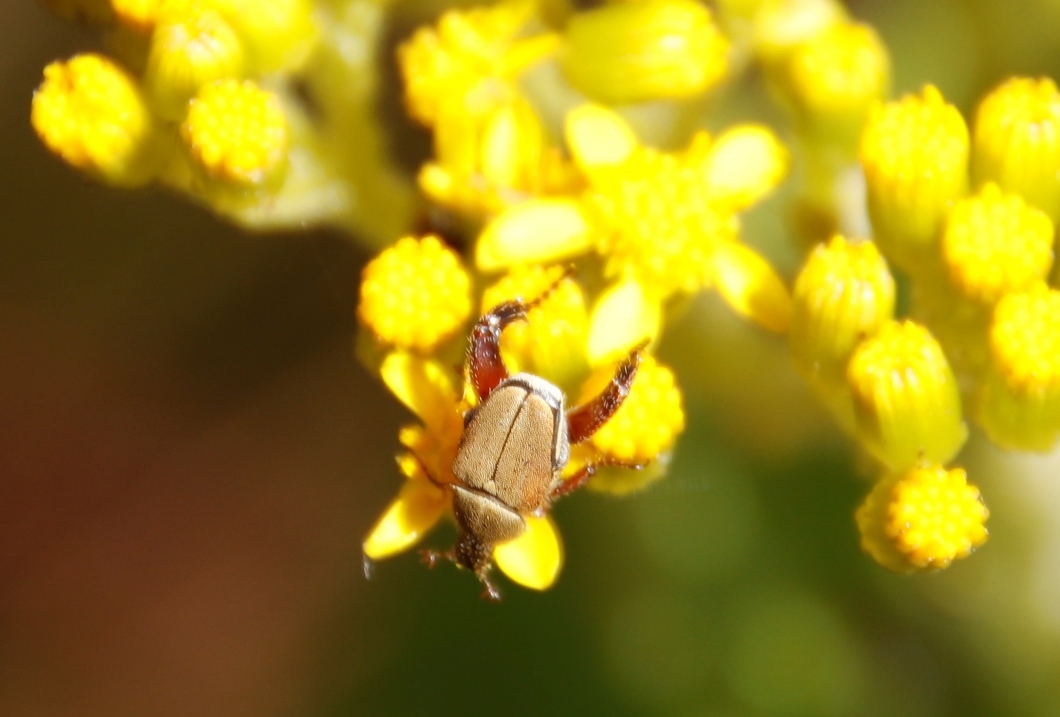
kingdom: Plantae
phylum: Tracheophyta
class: Magnoliopsida
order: Asterales
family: Asteraceae
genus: Senecio
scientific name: Senecio rigidus
